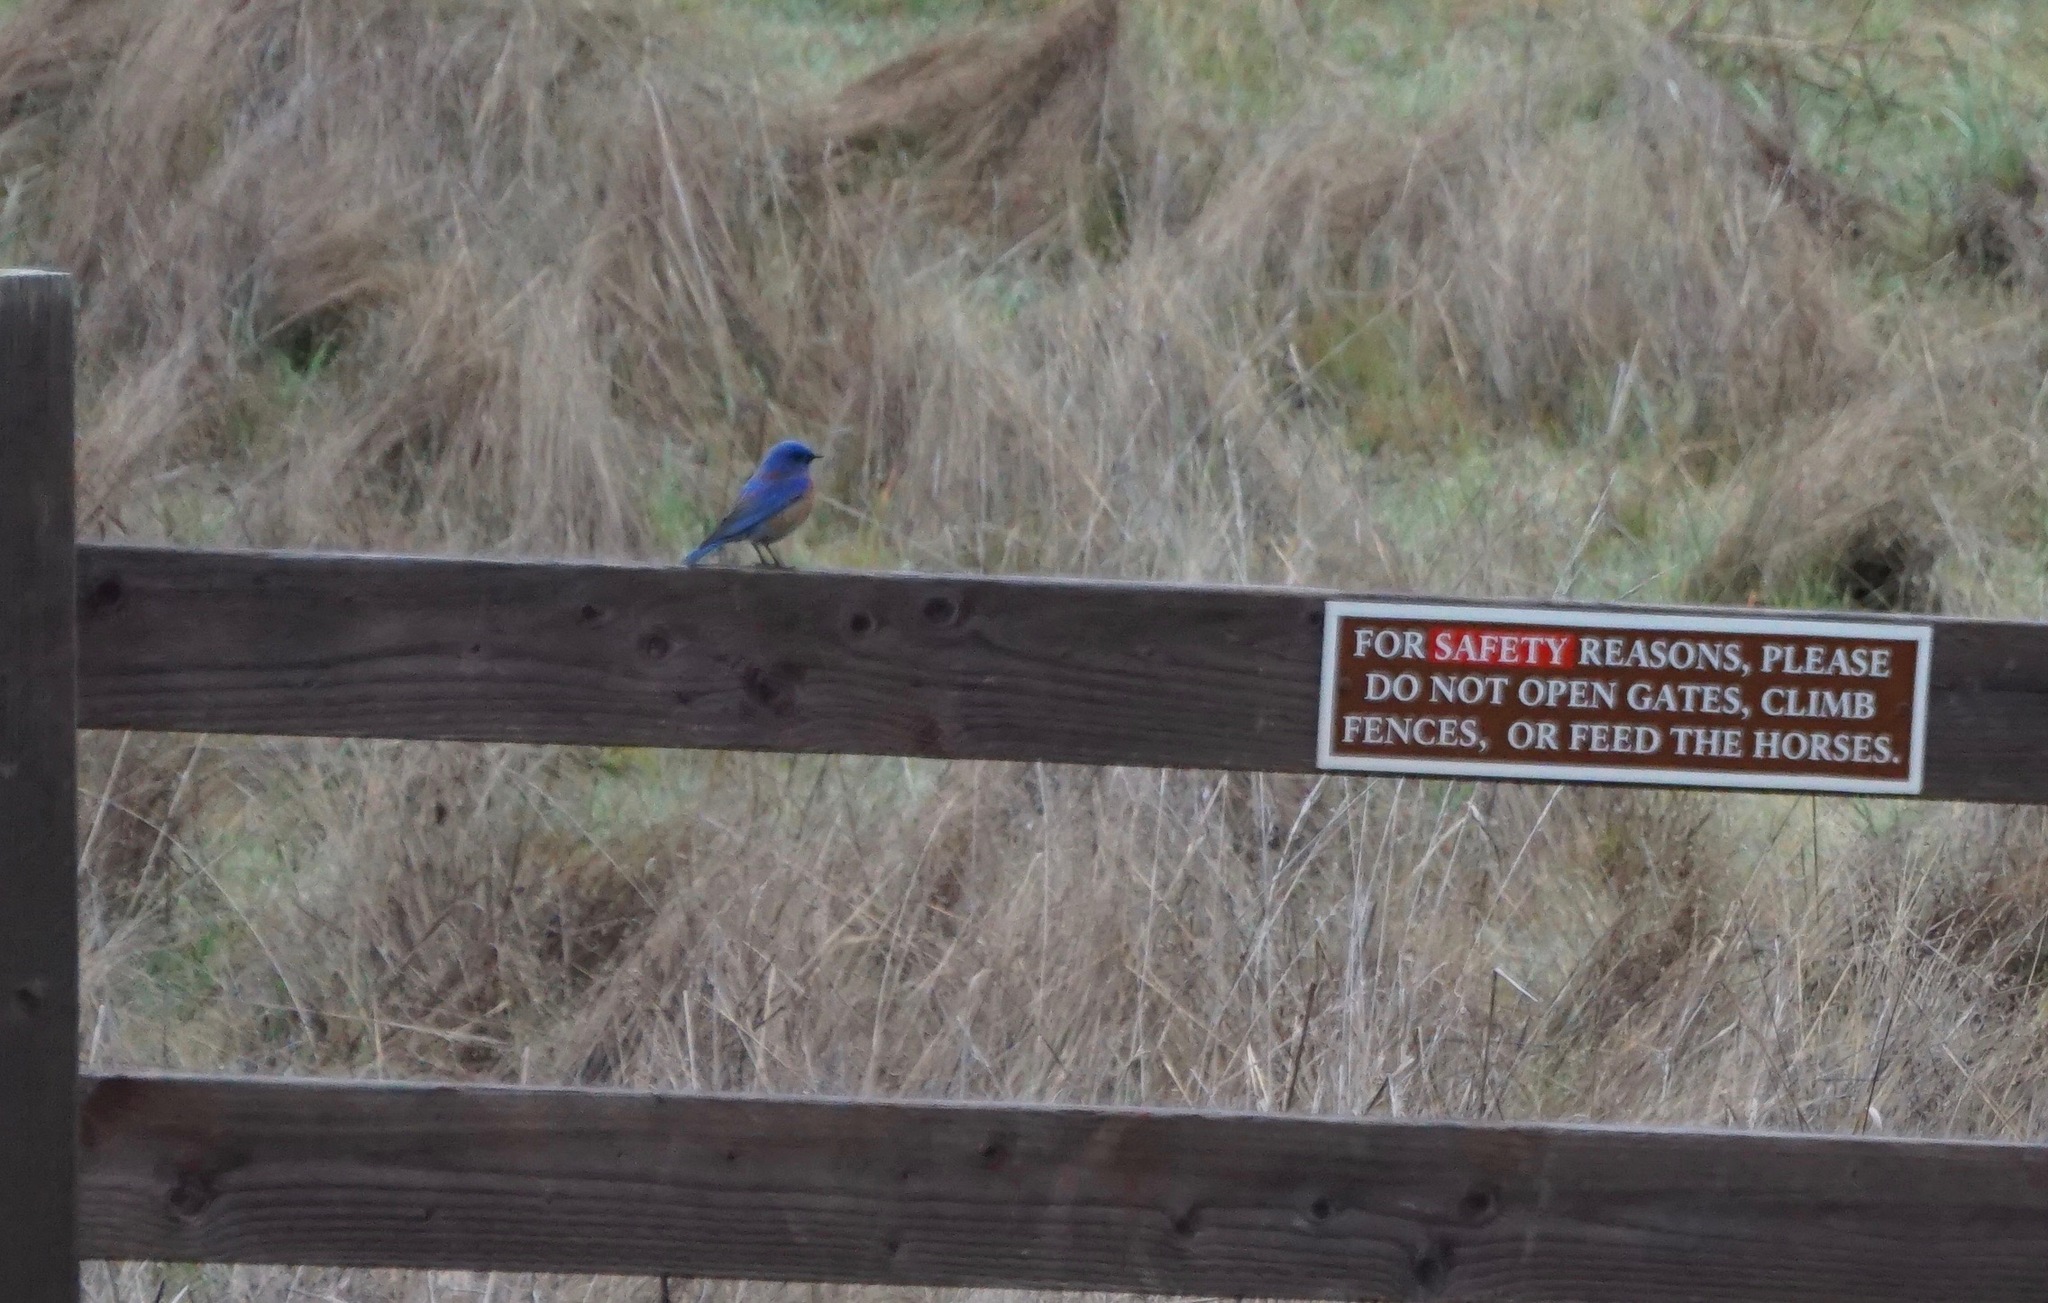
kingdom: Animalia
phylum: Chordata
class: Aves
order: Passeriformes
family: Turdidae
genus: Sialia
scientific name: Sialia mexicana
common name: Western bluebird
